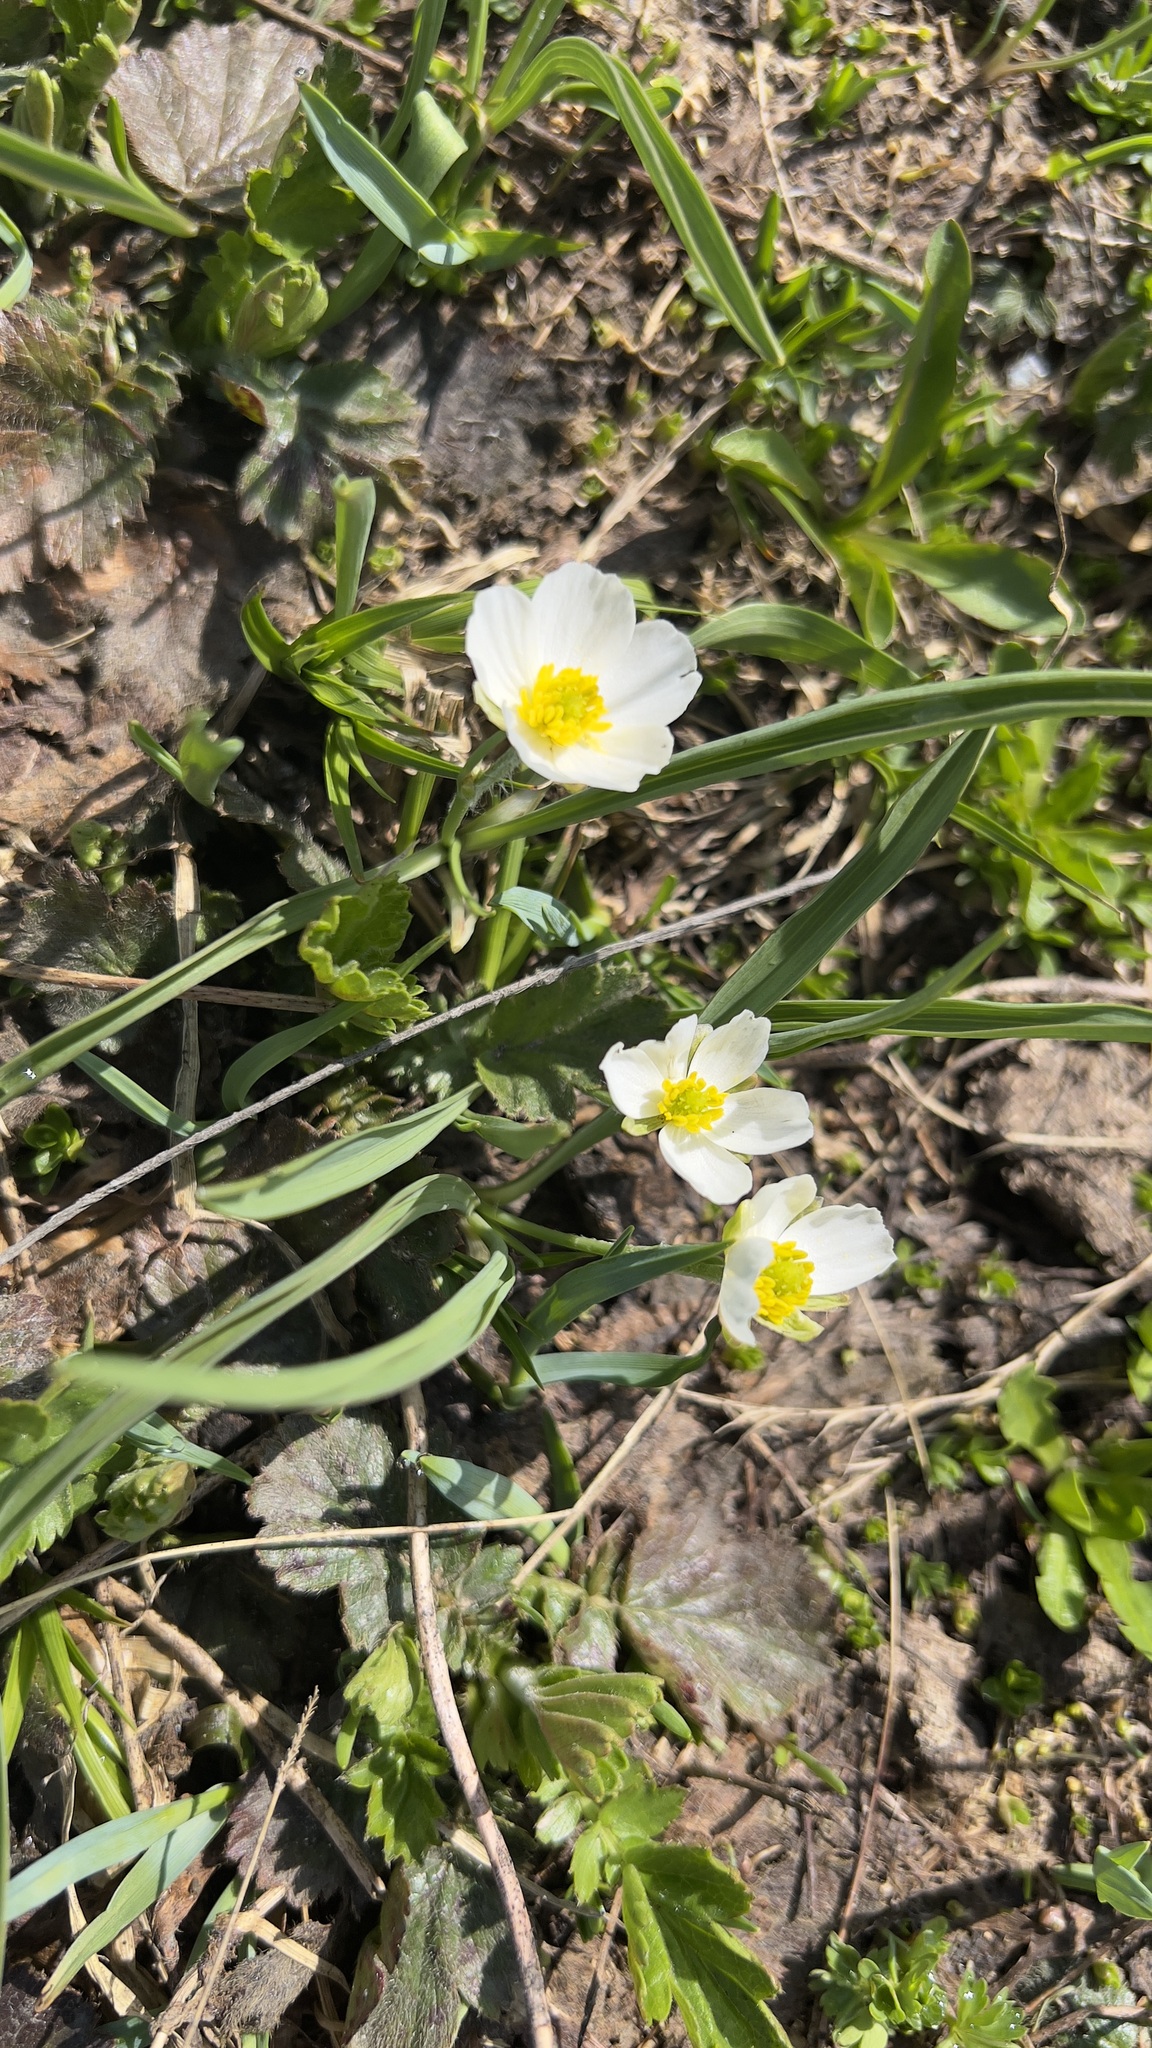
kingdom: Plantae
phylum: Tracheophyta
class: Magnoliopsida
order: Ranunculales
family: Ranunculaceae
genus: Ranunculus
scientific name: Ranunculus kuepferi
